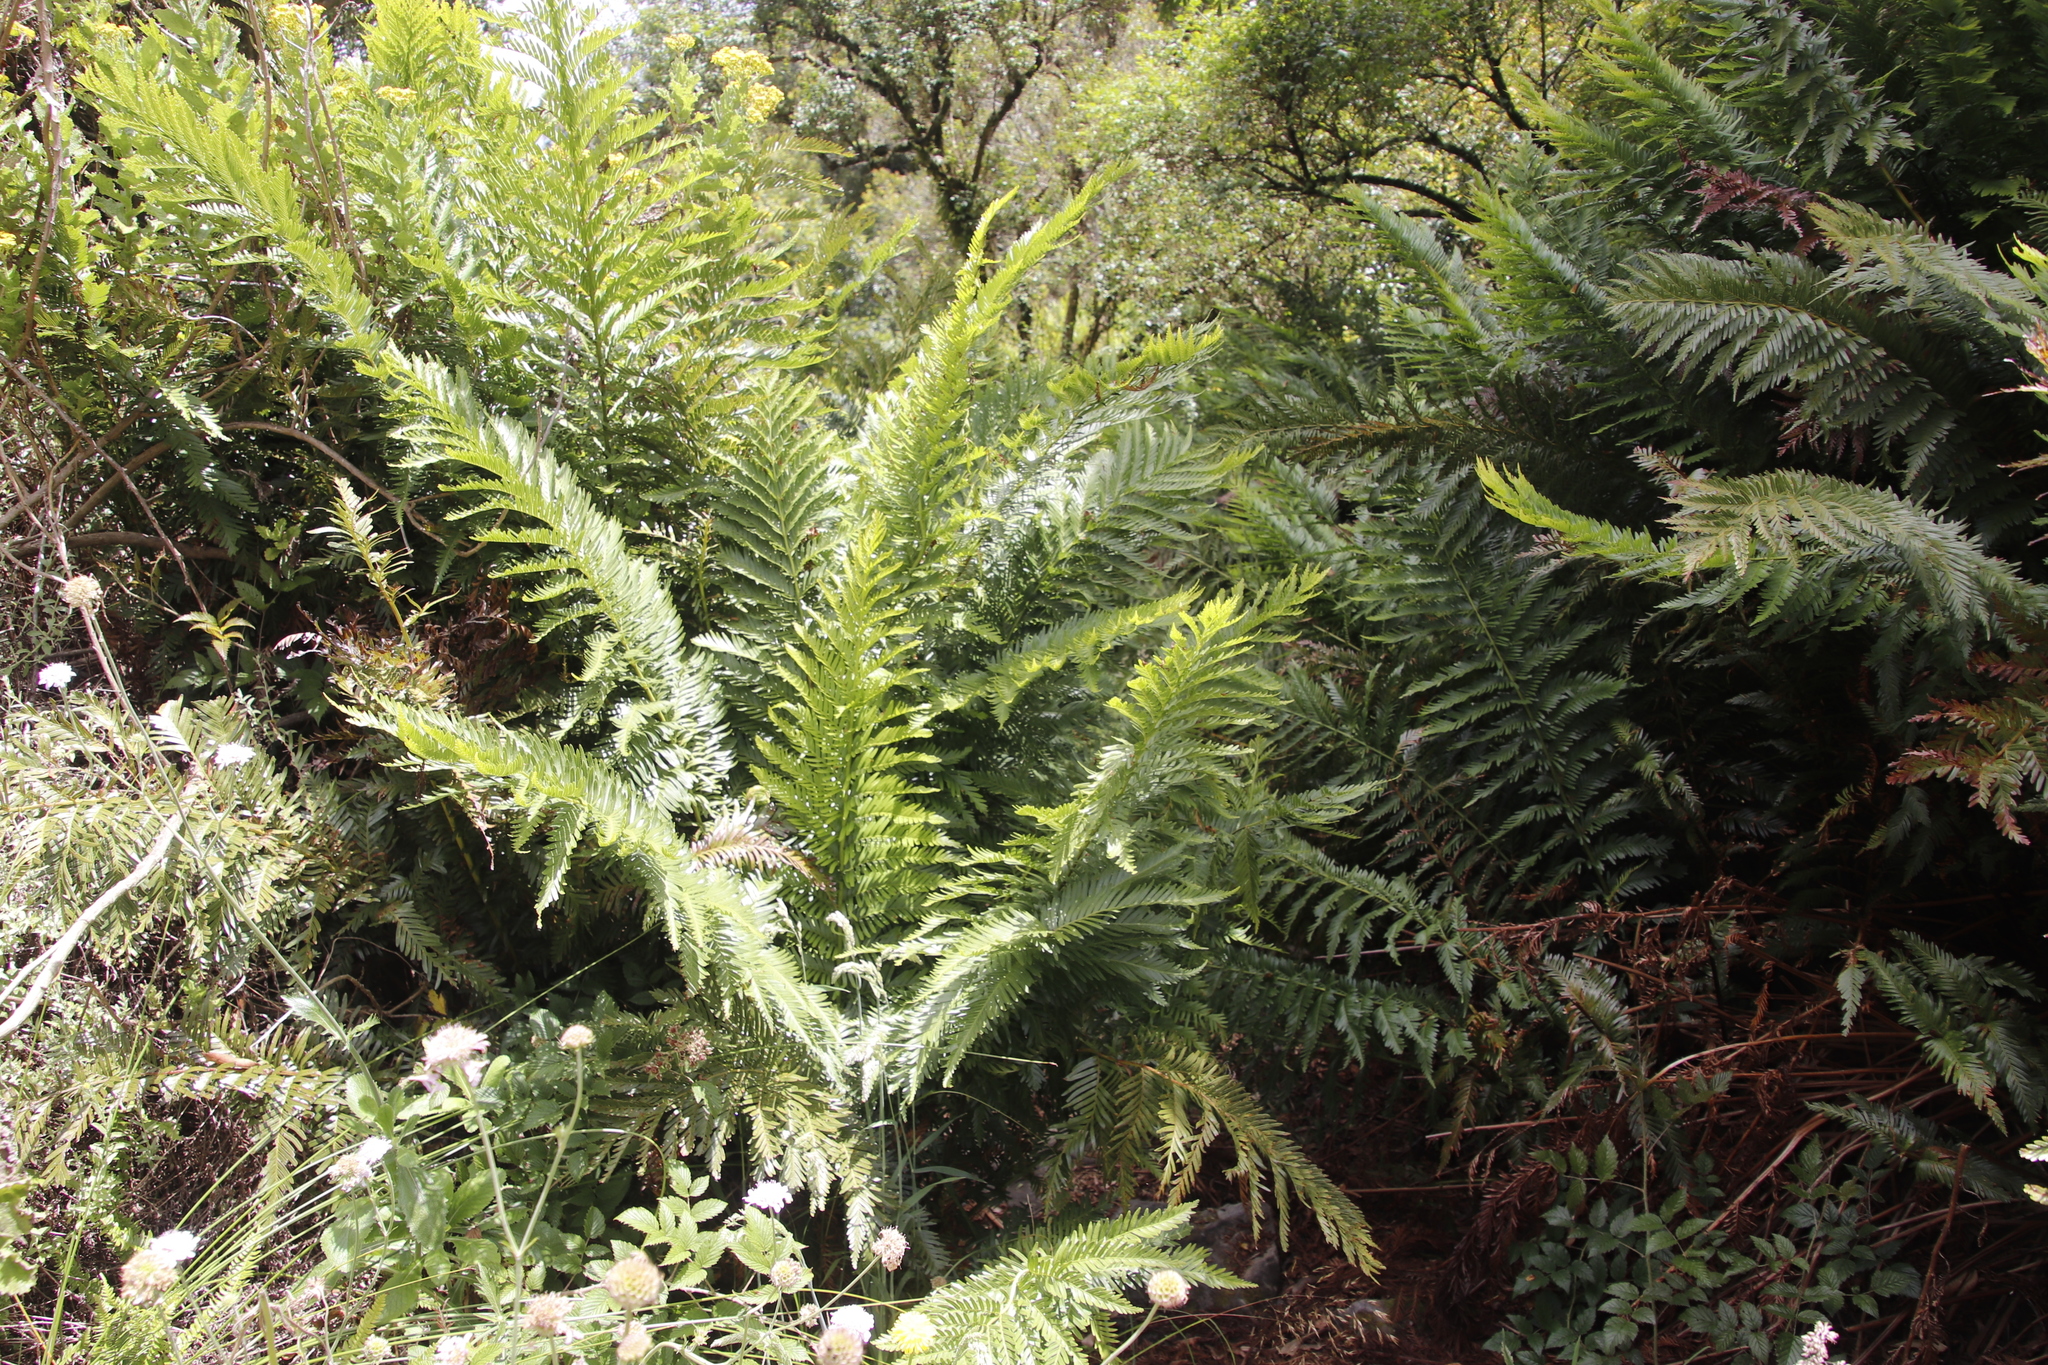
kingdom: Plantae
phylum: Tracheophyta
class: Polypodiopsida
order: Osmundales
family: Osmundaceae
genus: Todea
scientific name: Todea barbara
